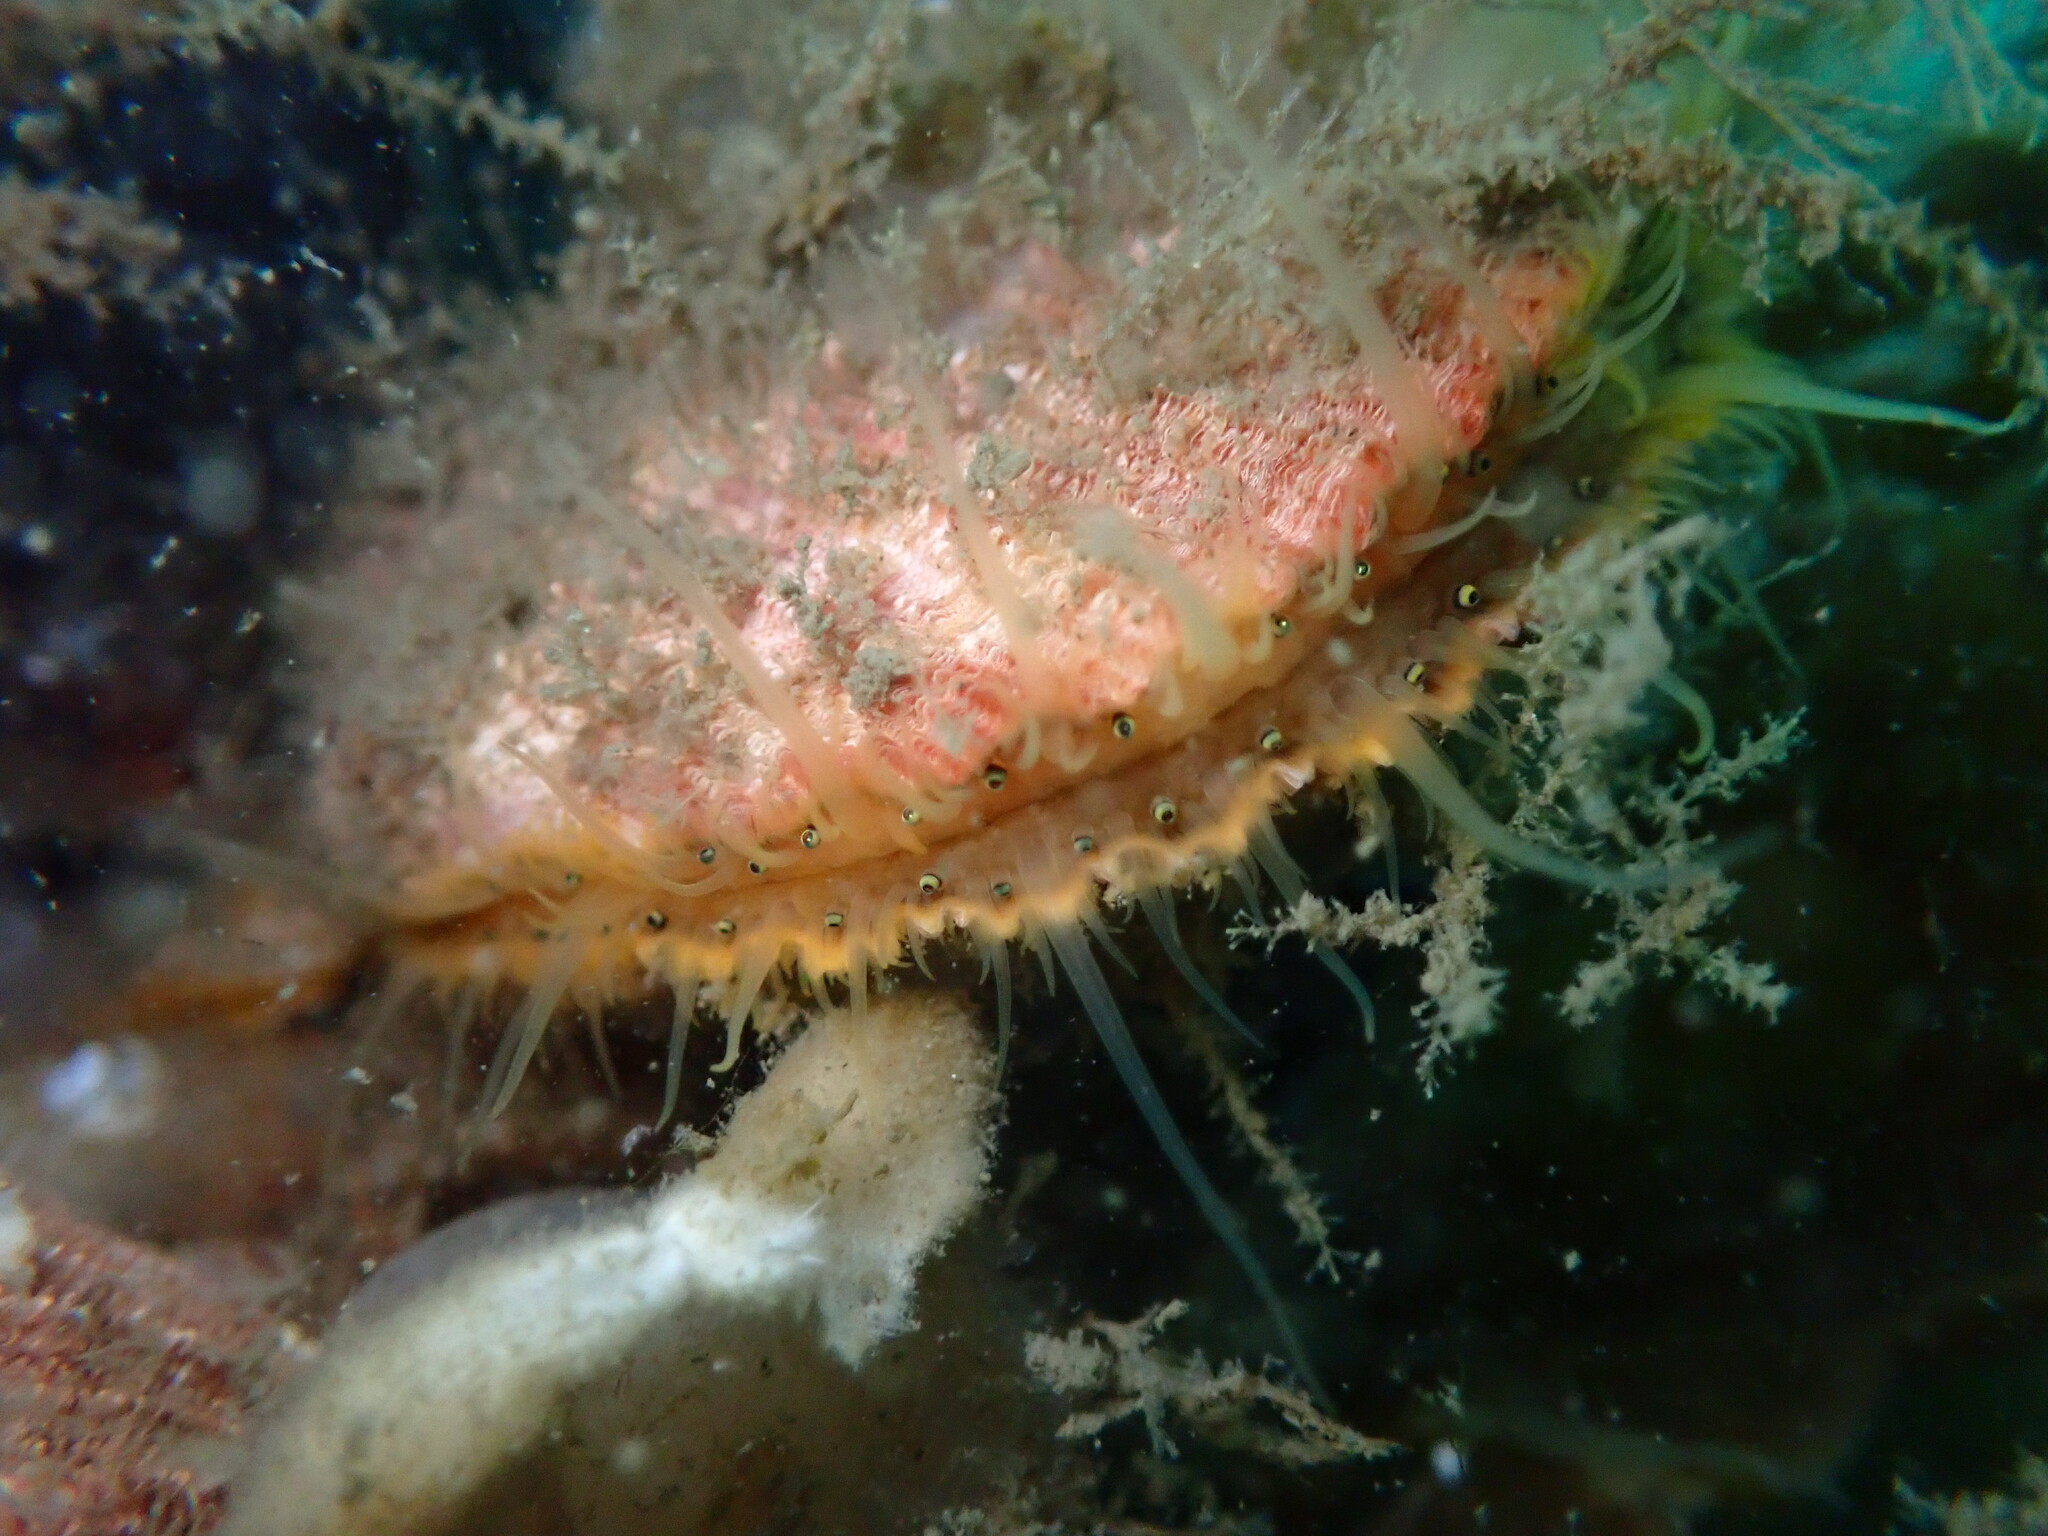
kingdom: Animalia
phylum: Mollusca
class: Bivalvia
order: Pectinida
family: Pectinidae
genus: Chlamys
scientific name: Chlamys hastata
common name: Spear scallop
